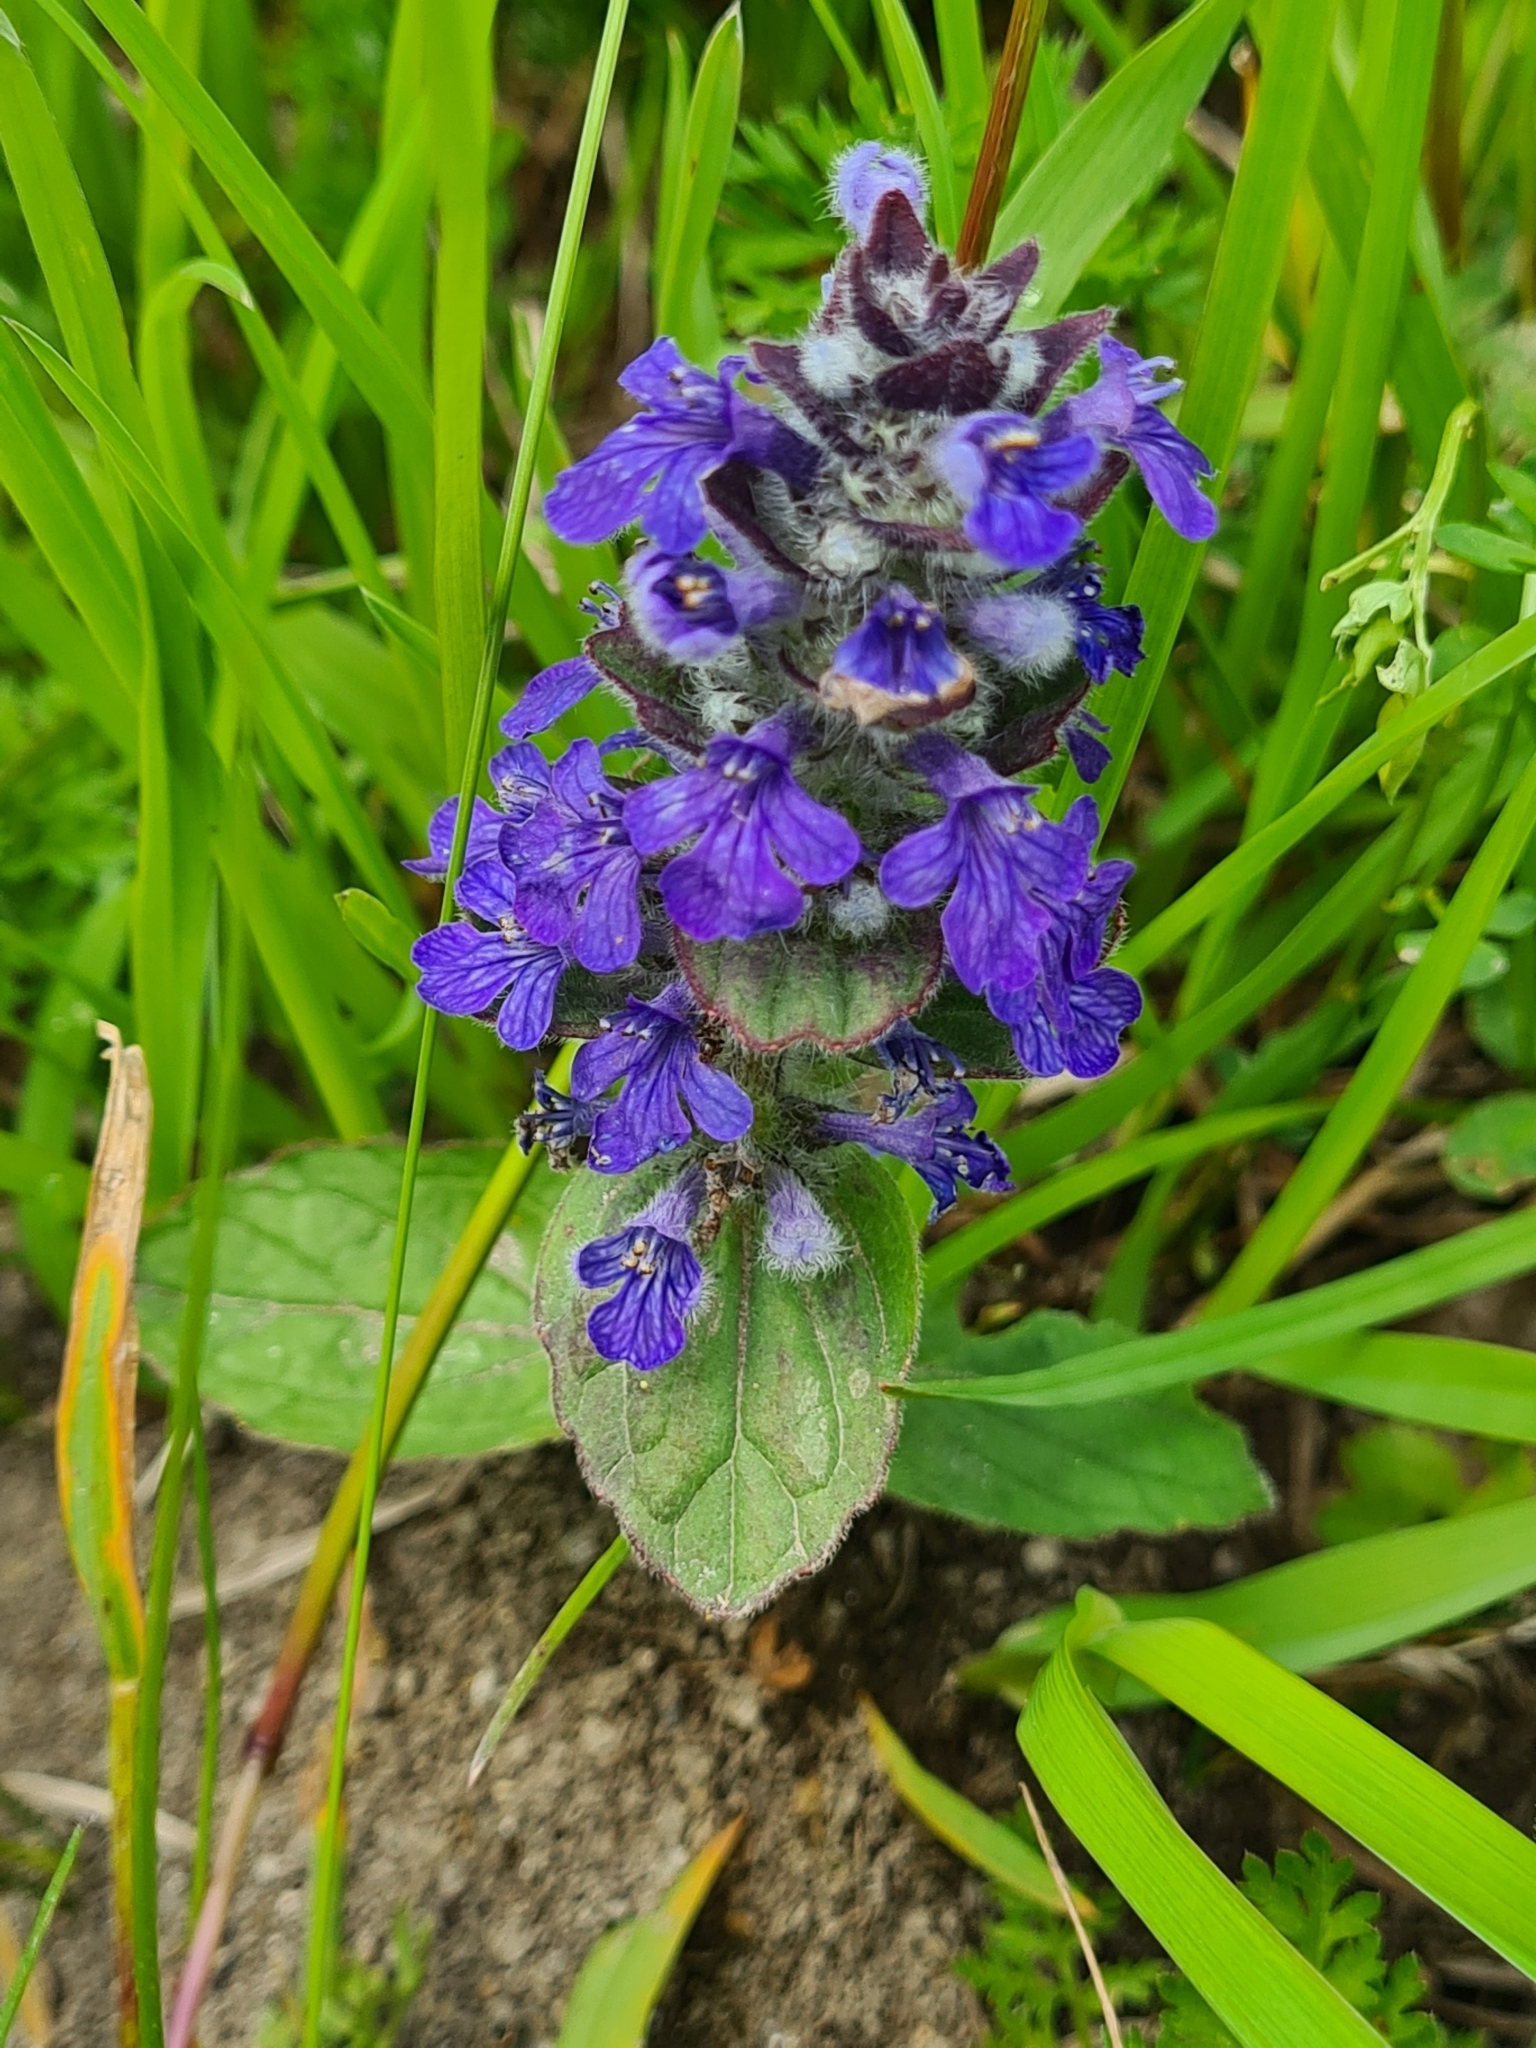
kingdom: Plantae
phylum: Tracheophyta
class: Magnoliopsida
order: Lamiales
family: Lamiaceae
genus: Ajuga
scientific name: Ajuga reptans
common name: Bugle
